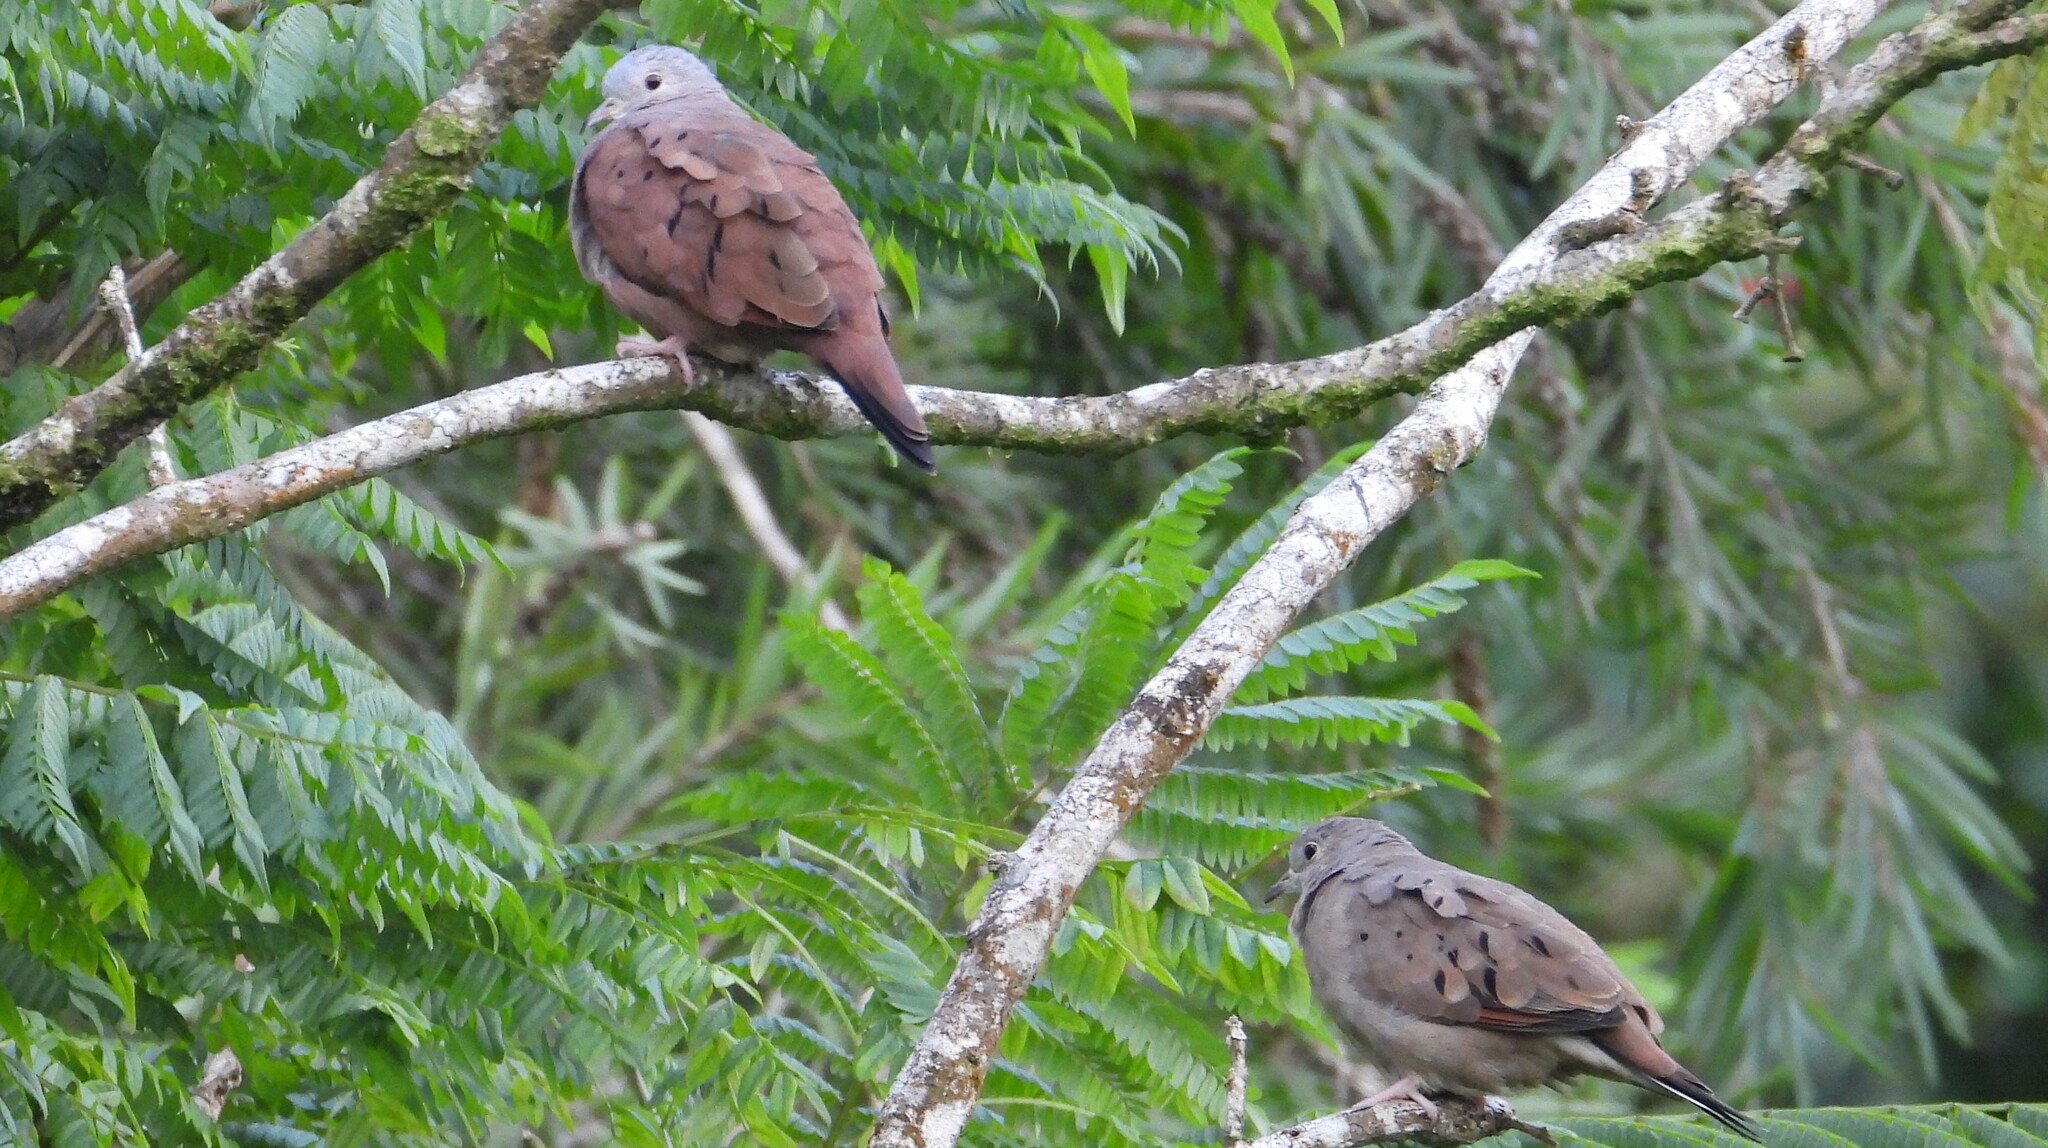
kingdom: Animalia
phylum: Chordata
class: Aves
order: Columbiformes
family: Columbidae
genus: Columbina
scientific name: Columbina talpacoti
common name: Ruddy ground dove
